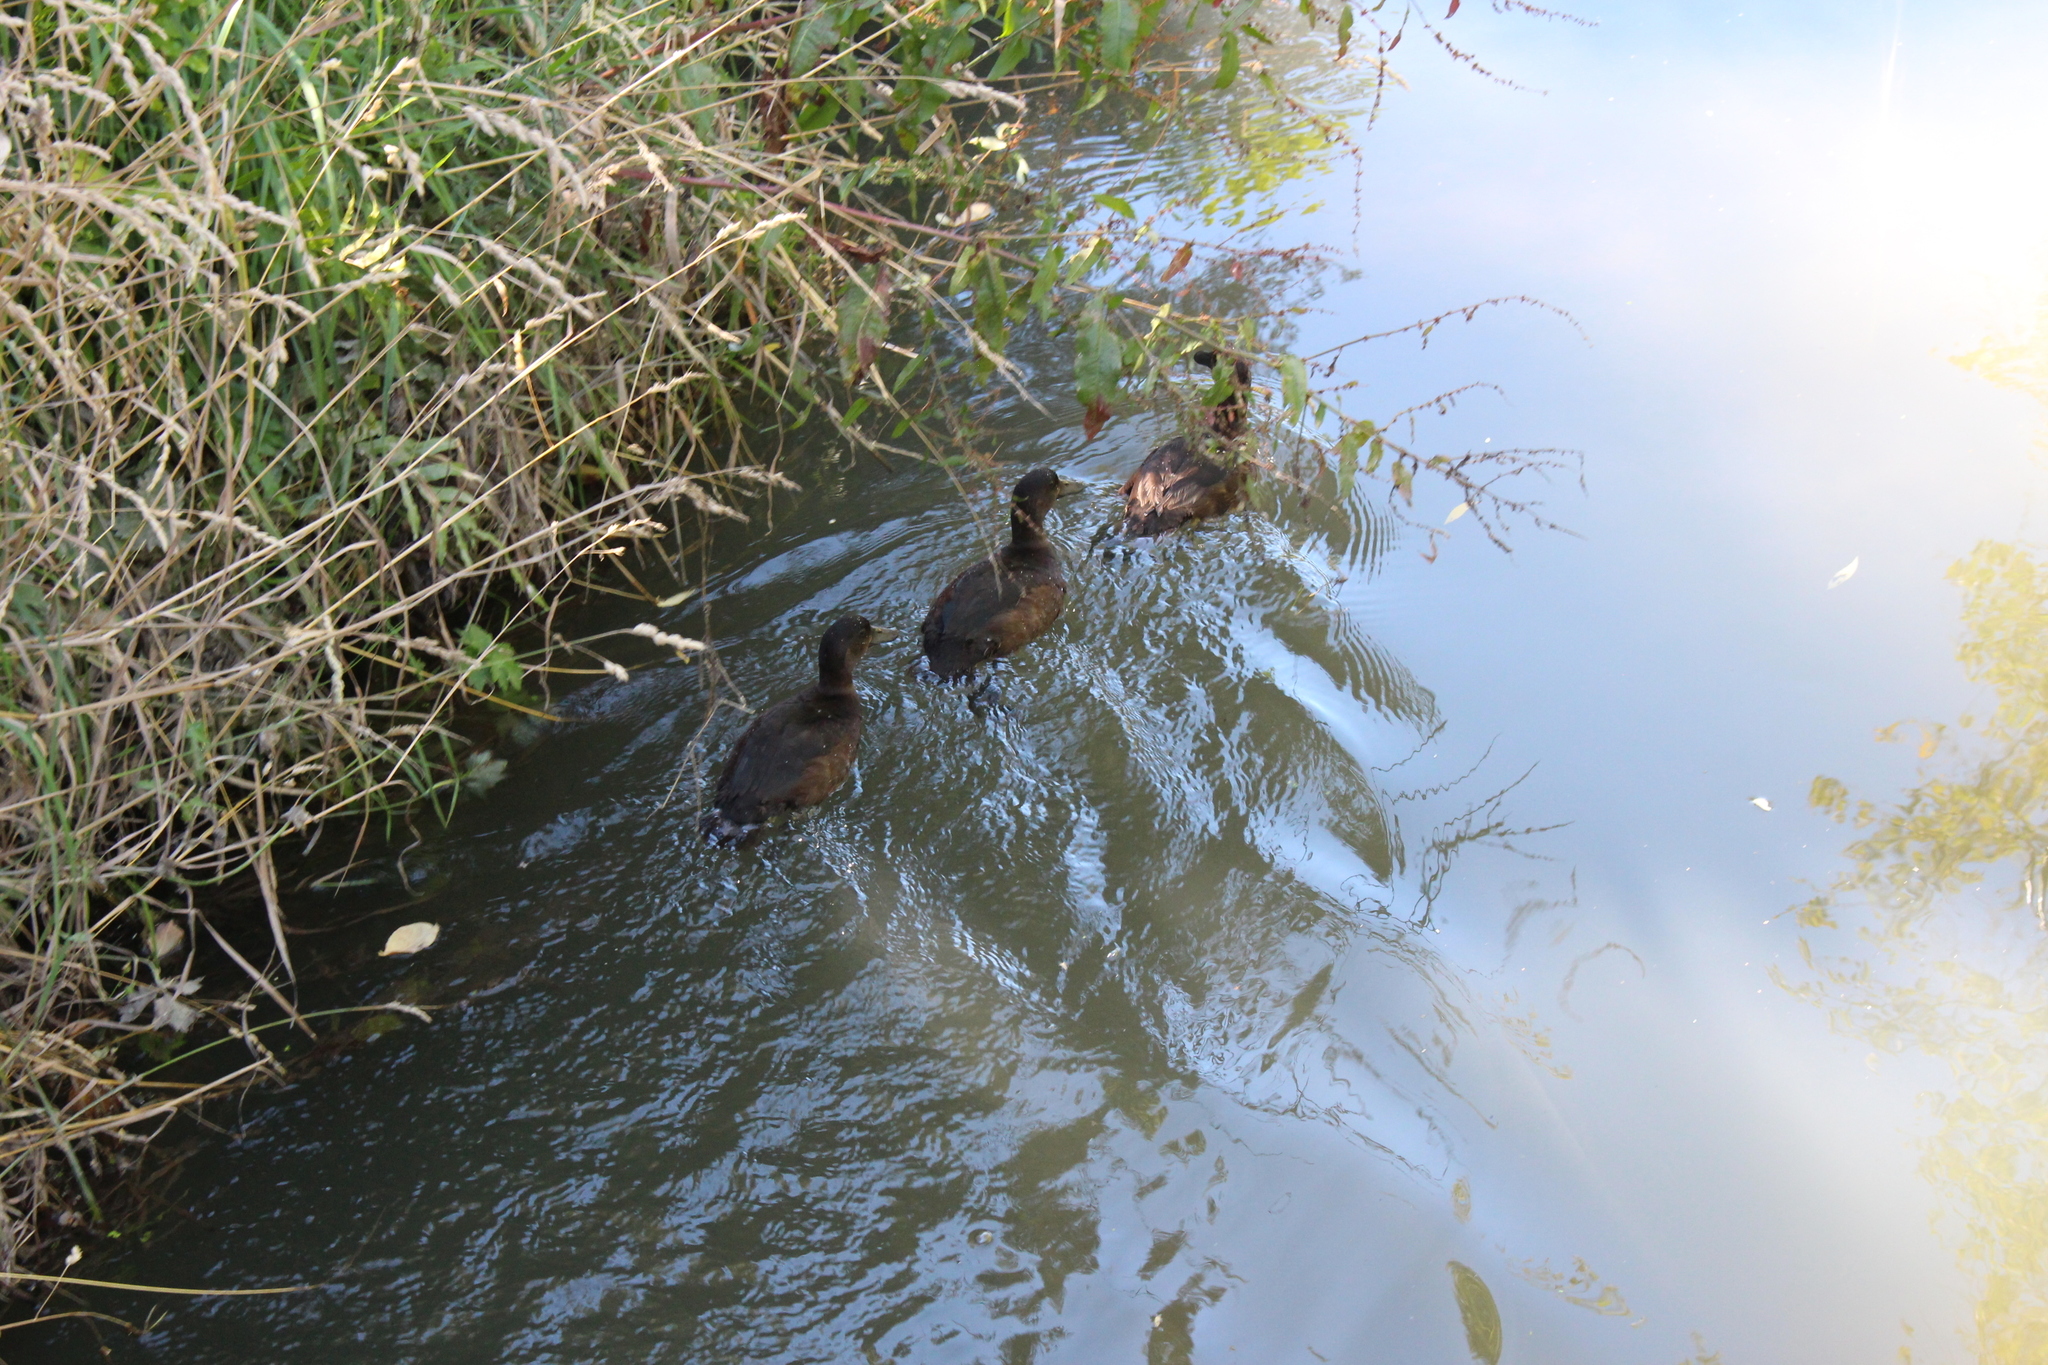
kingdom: Animalia
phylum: Chordata
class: Aves
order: Anseriformes
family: Anatidae
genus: Aythya
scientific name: Aythya novaeseelandiae
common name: New zealand scaup
